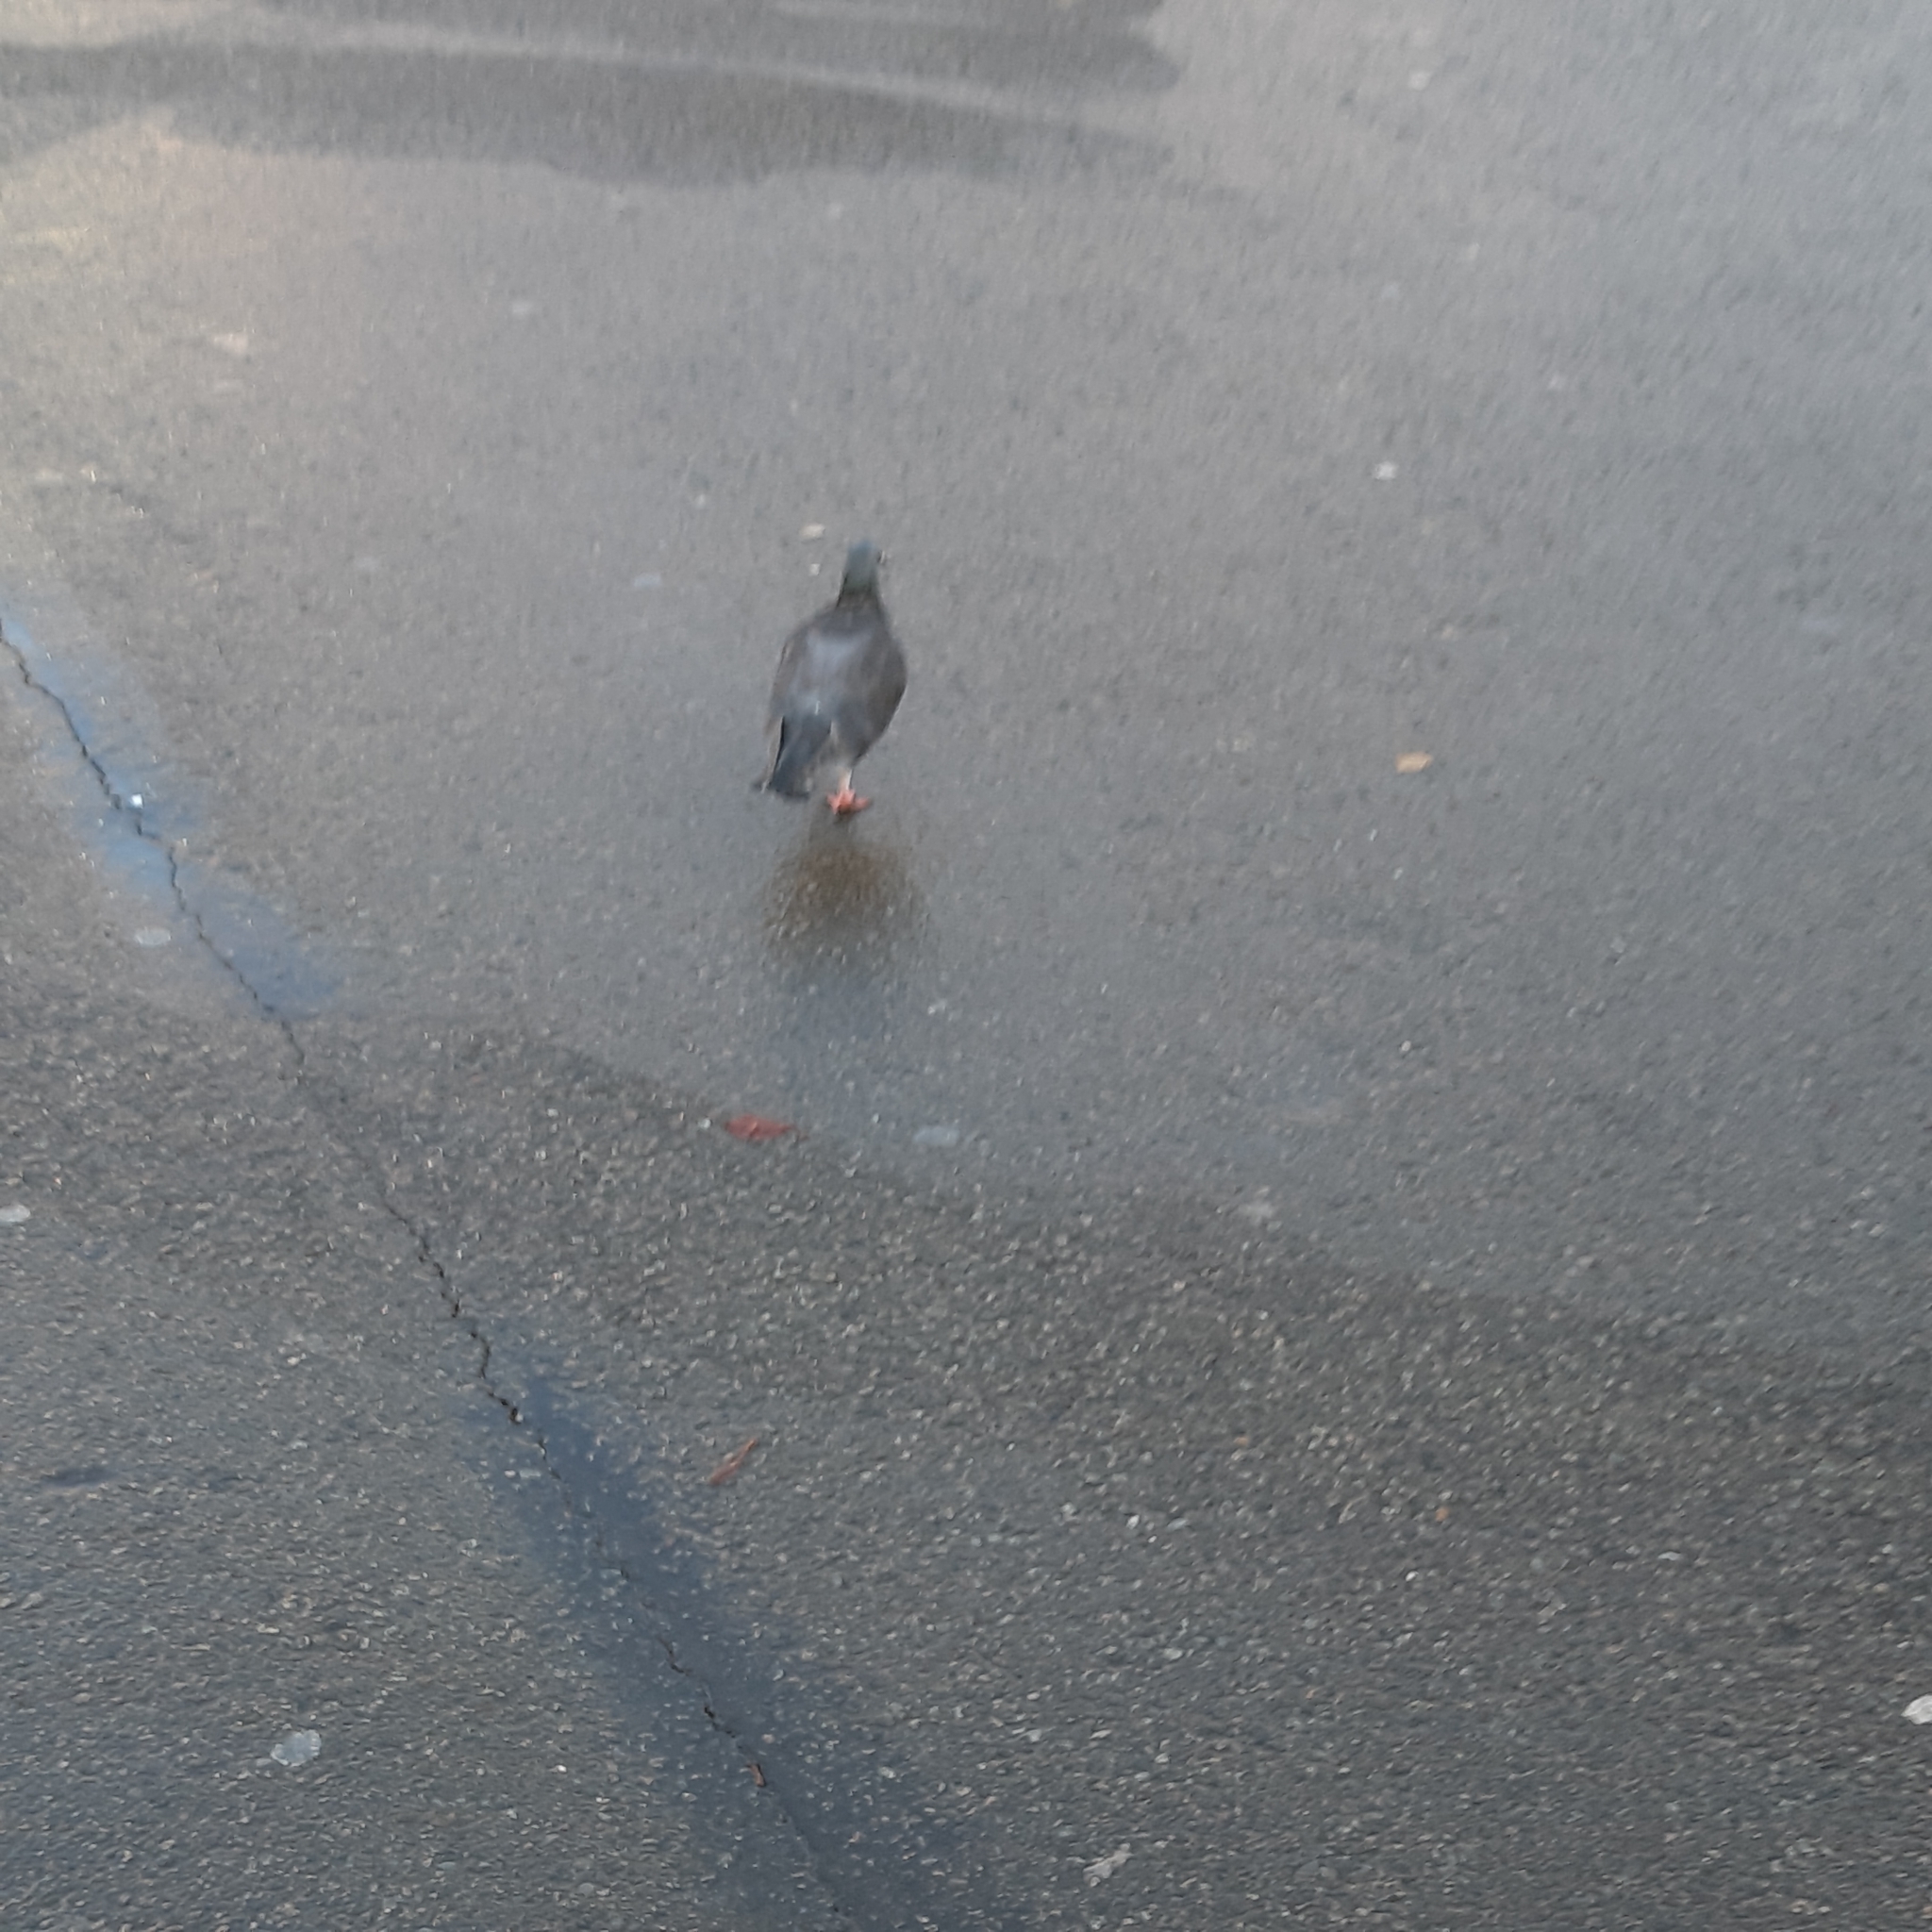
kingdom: Animalia
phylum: Chordata
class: Aves
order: Columbiformes
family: Columbidae
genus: Columba
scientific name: Columba livia
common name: Rock pigeon
